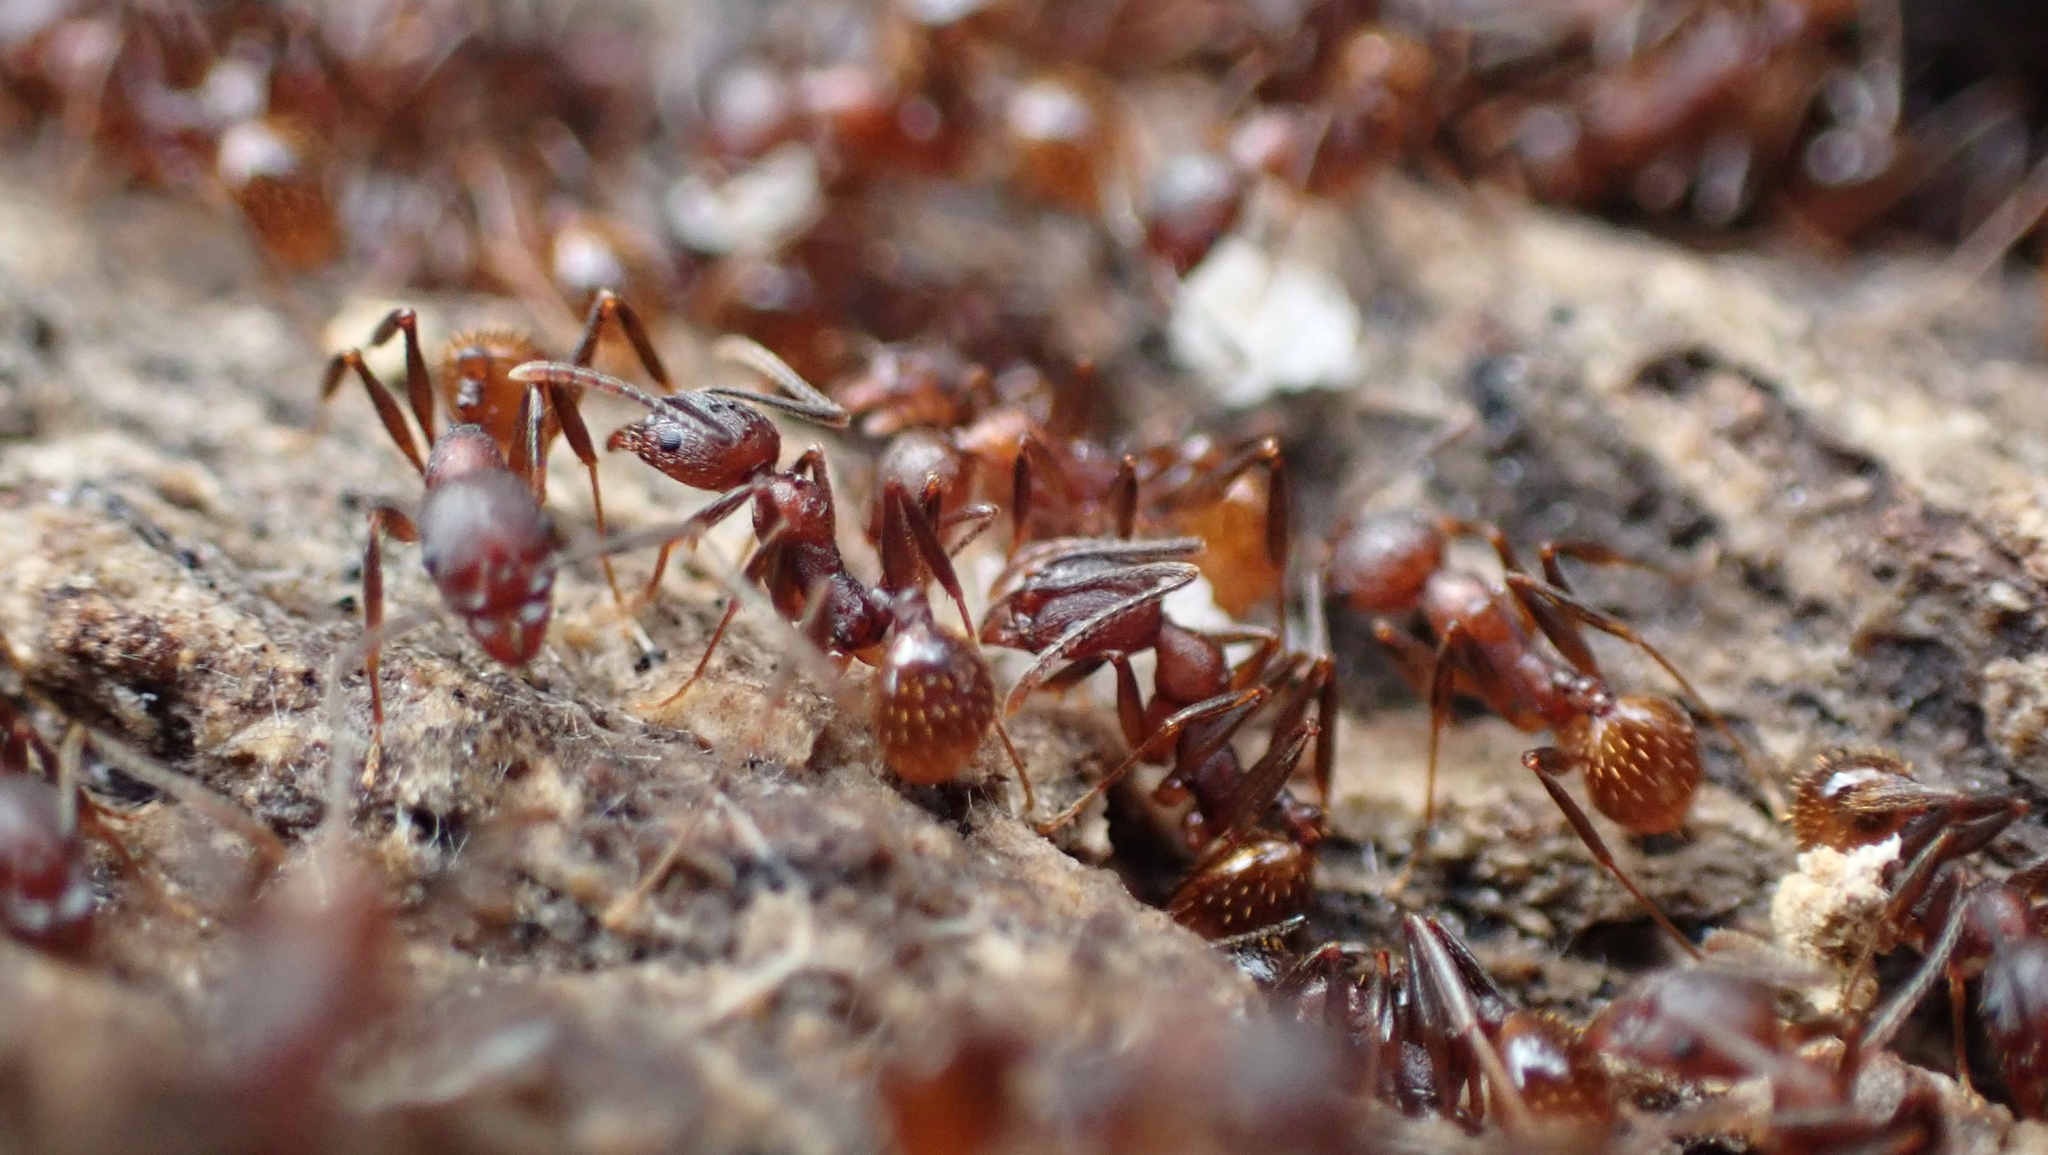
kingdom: Animalia
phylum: Arthropoda
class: Insecta
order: Hymenoptera
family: Formicidae
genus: Aphaenogaster
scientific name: Aphaenogaster fulva
